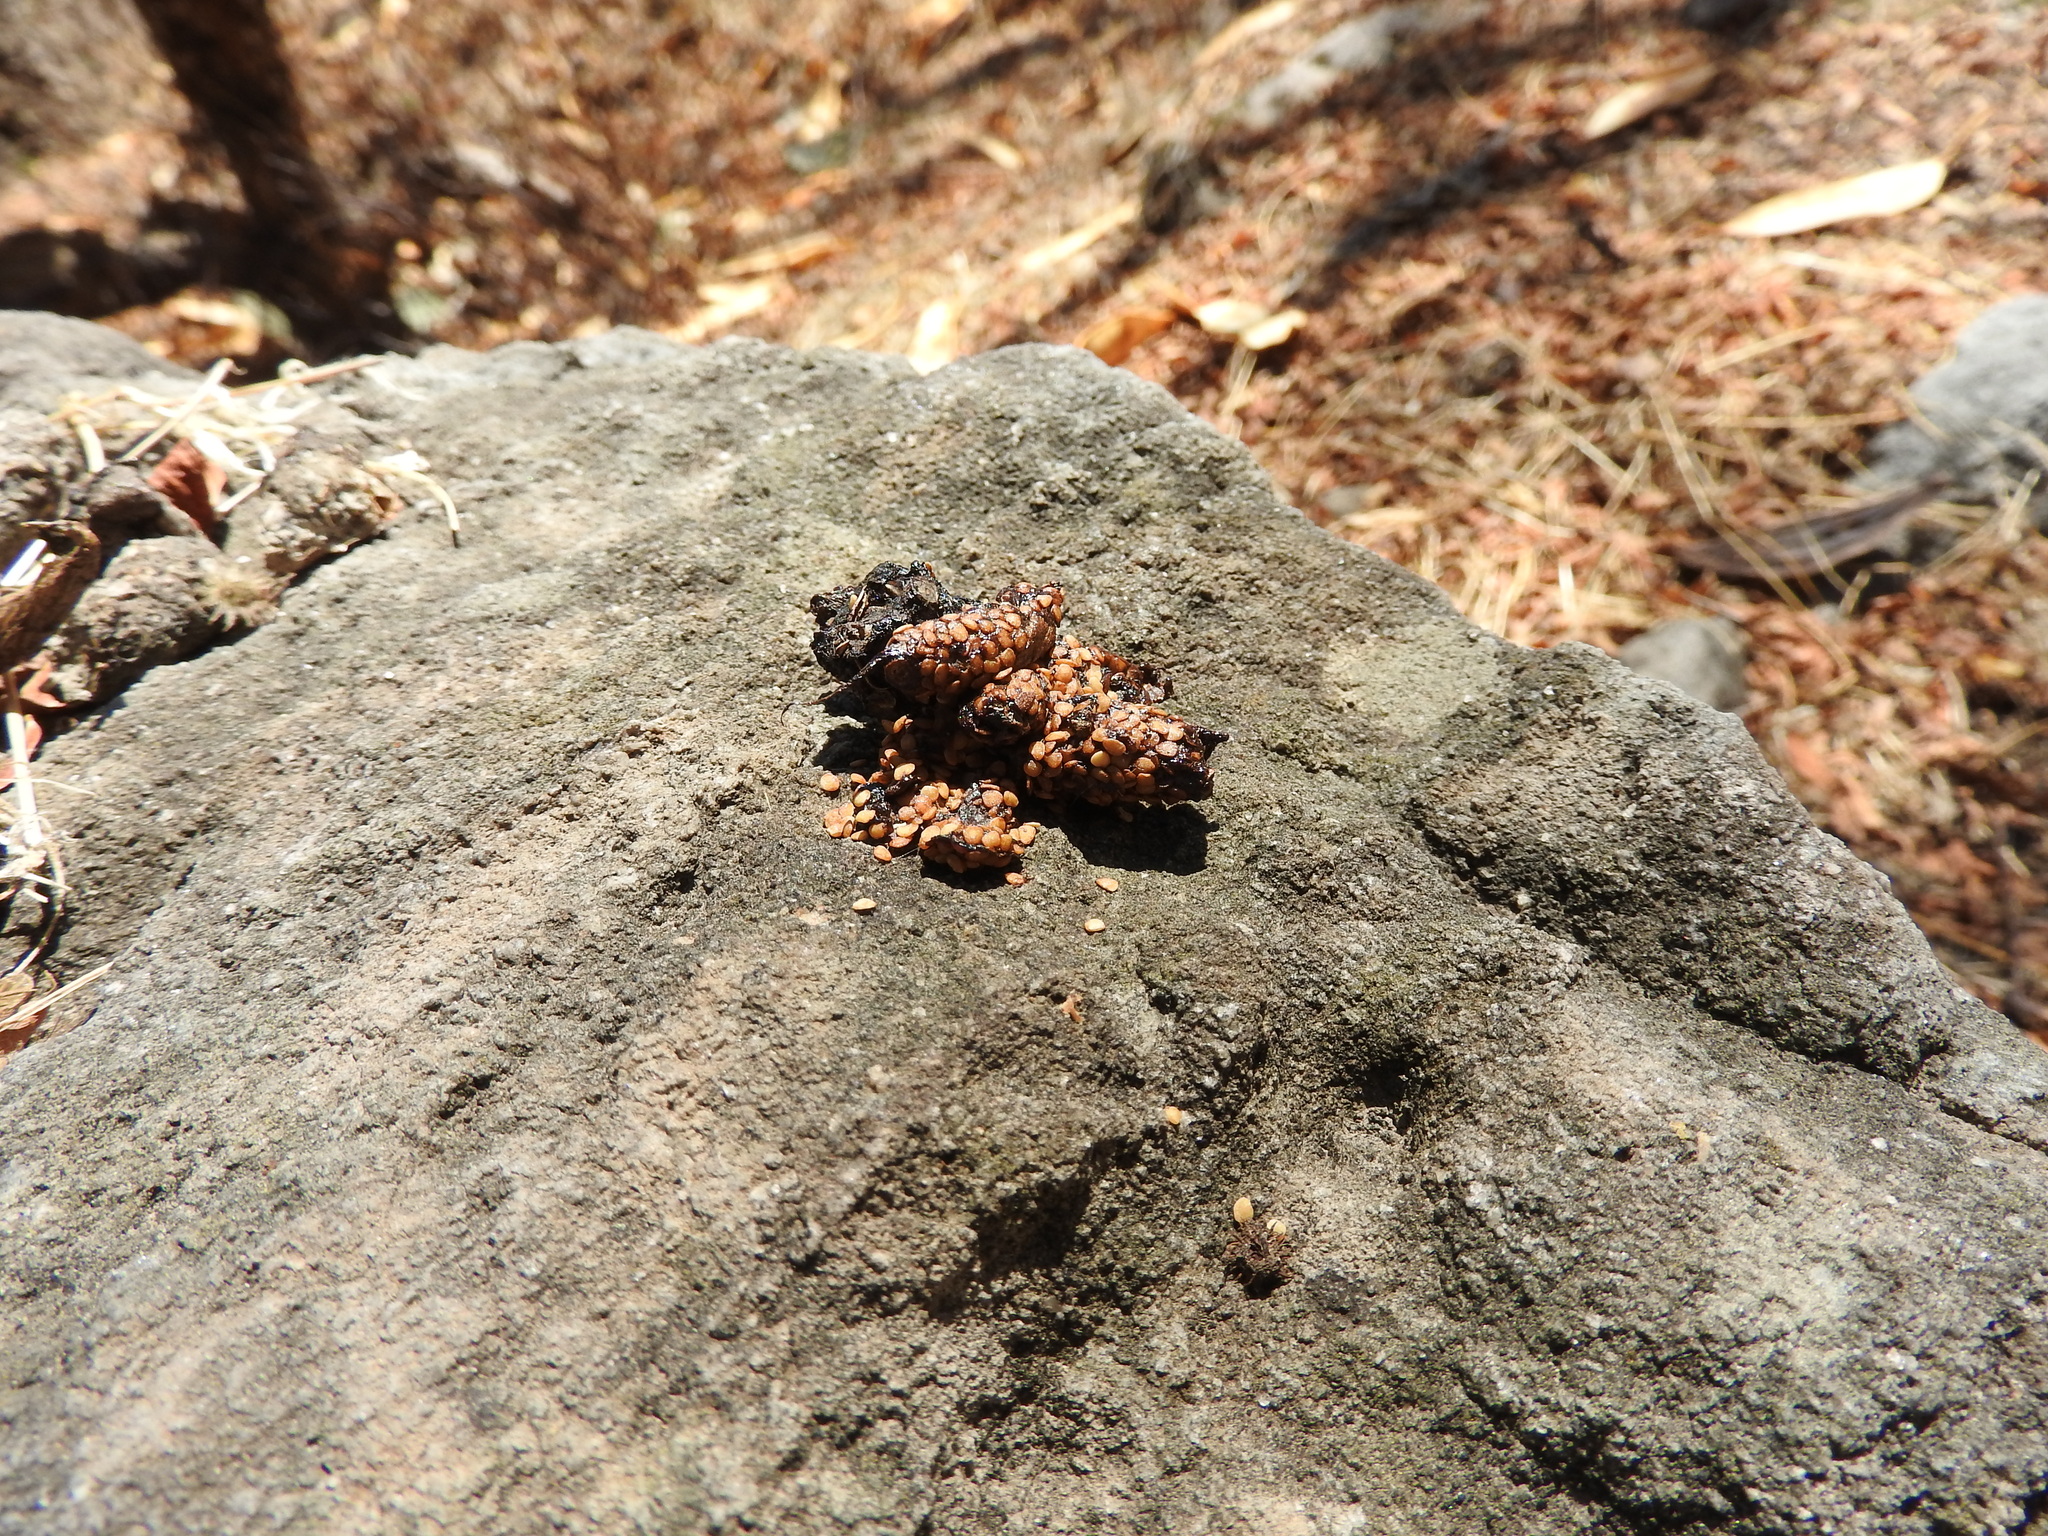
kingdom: Animalia
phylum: Chordata
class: Mammalia
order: Carnivora
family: Canidae
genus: Urocyon
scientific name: Urocyon cinereoargenteus
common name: Gray fox
